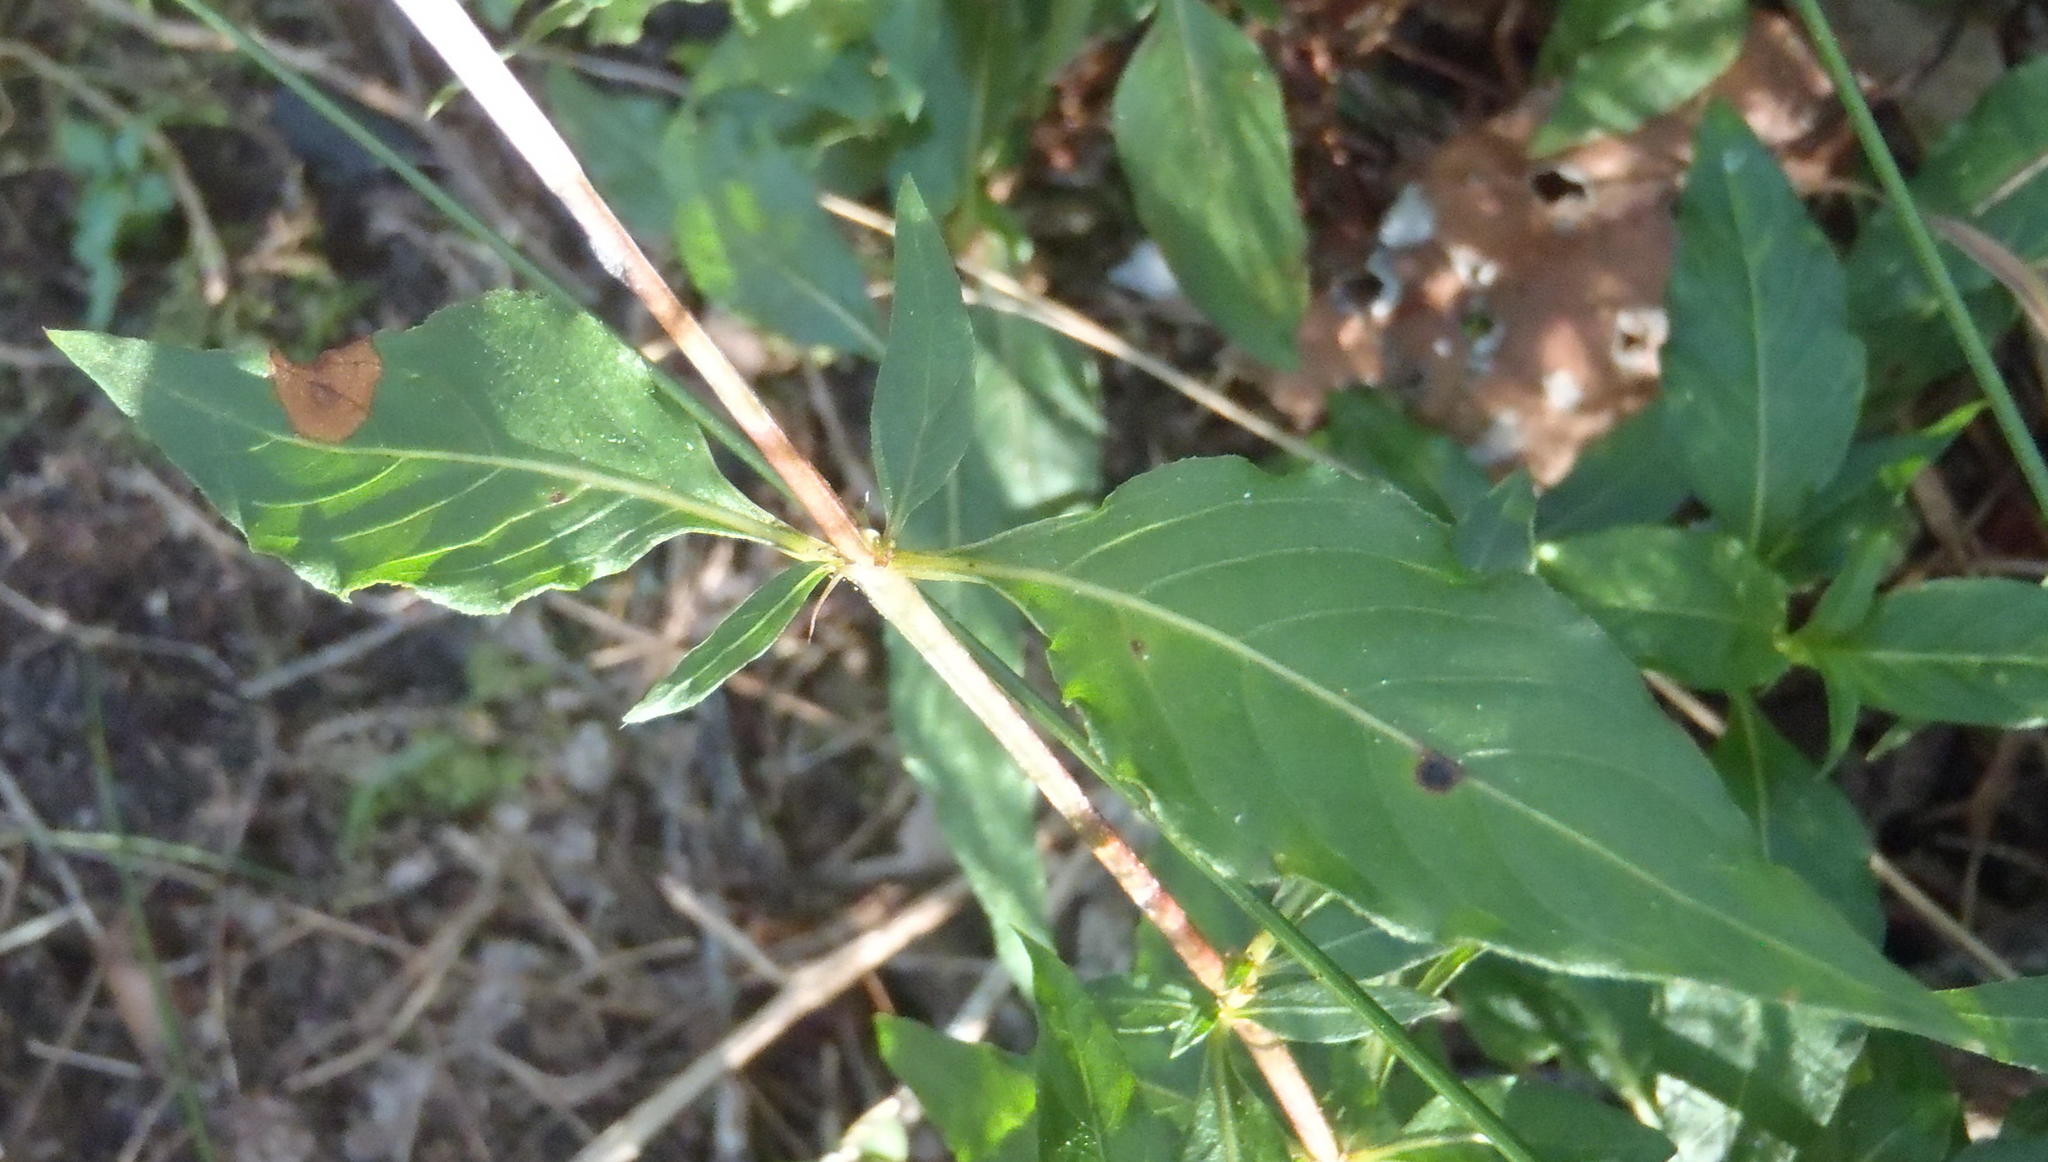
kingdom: Plantae
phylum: Tracheophyta
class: Magnoliopsida
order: Gentianales
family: Rubiaceae
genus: Galopina
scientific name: Galopina circaeoides
